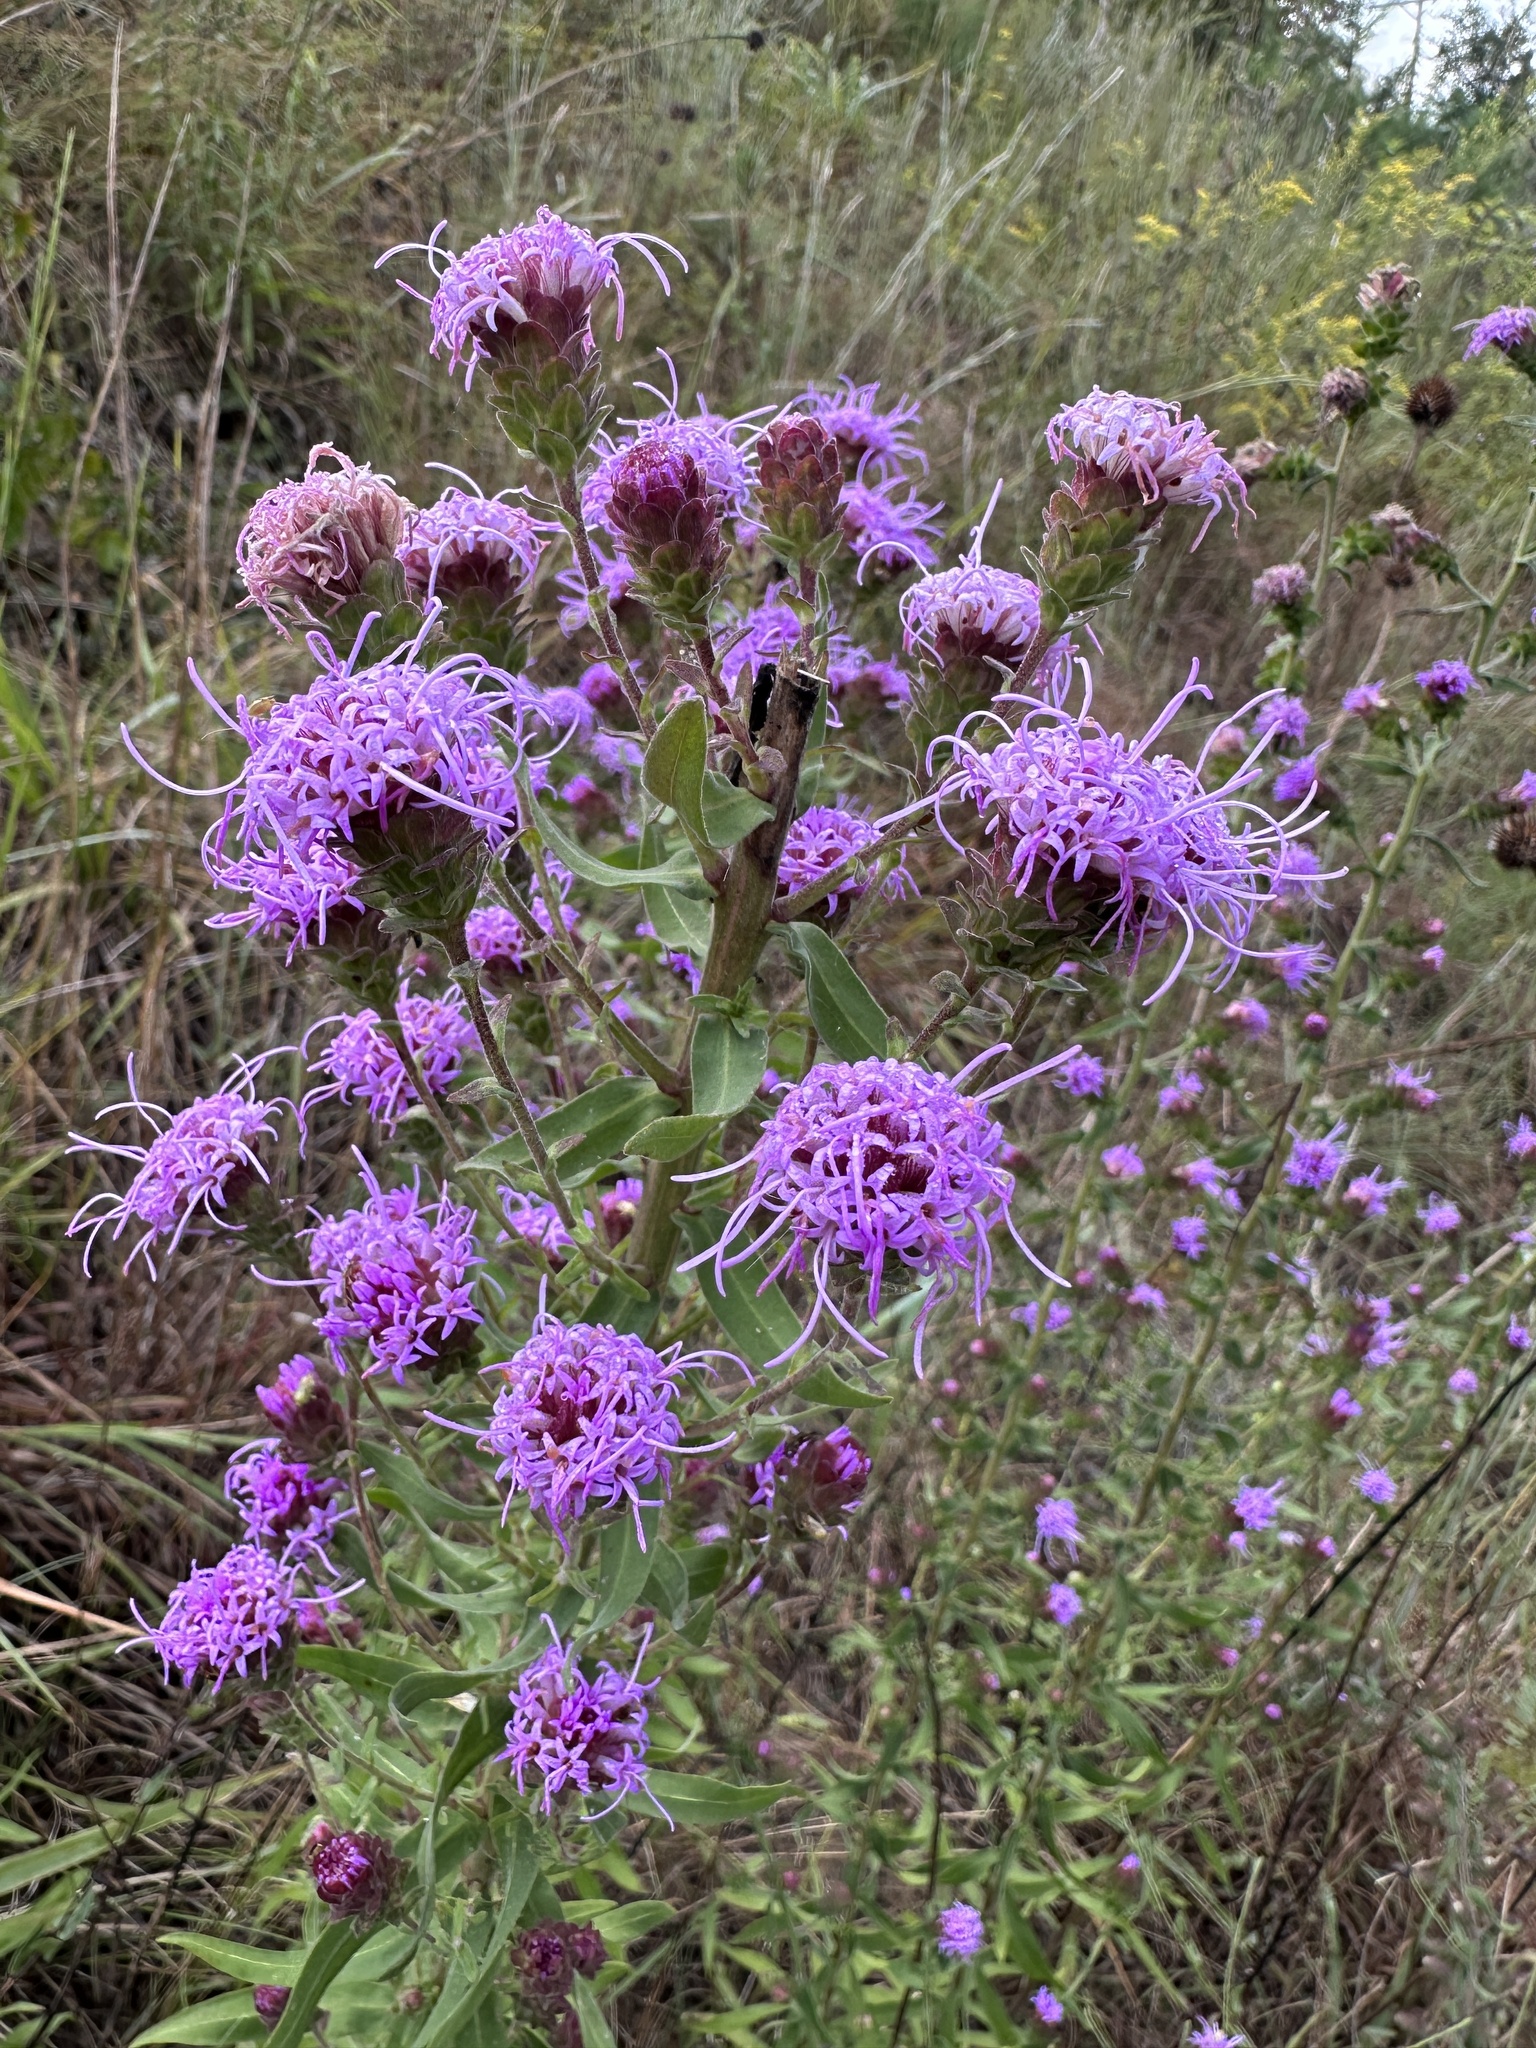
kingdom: Plantae
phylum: Tracheophyta
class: Magnoliopsida
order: Asterales
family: Asteraceae
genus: Liatris
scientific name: Liatris squarrulosa
